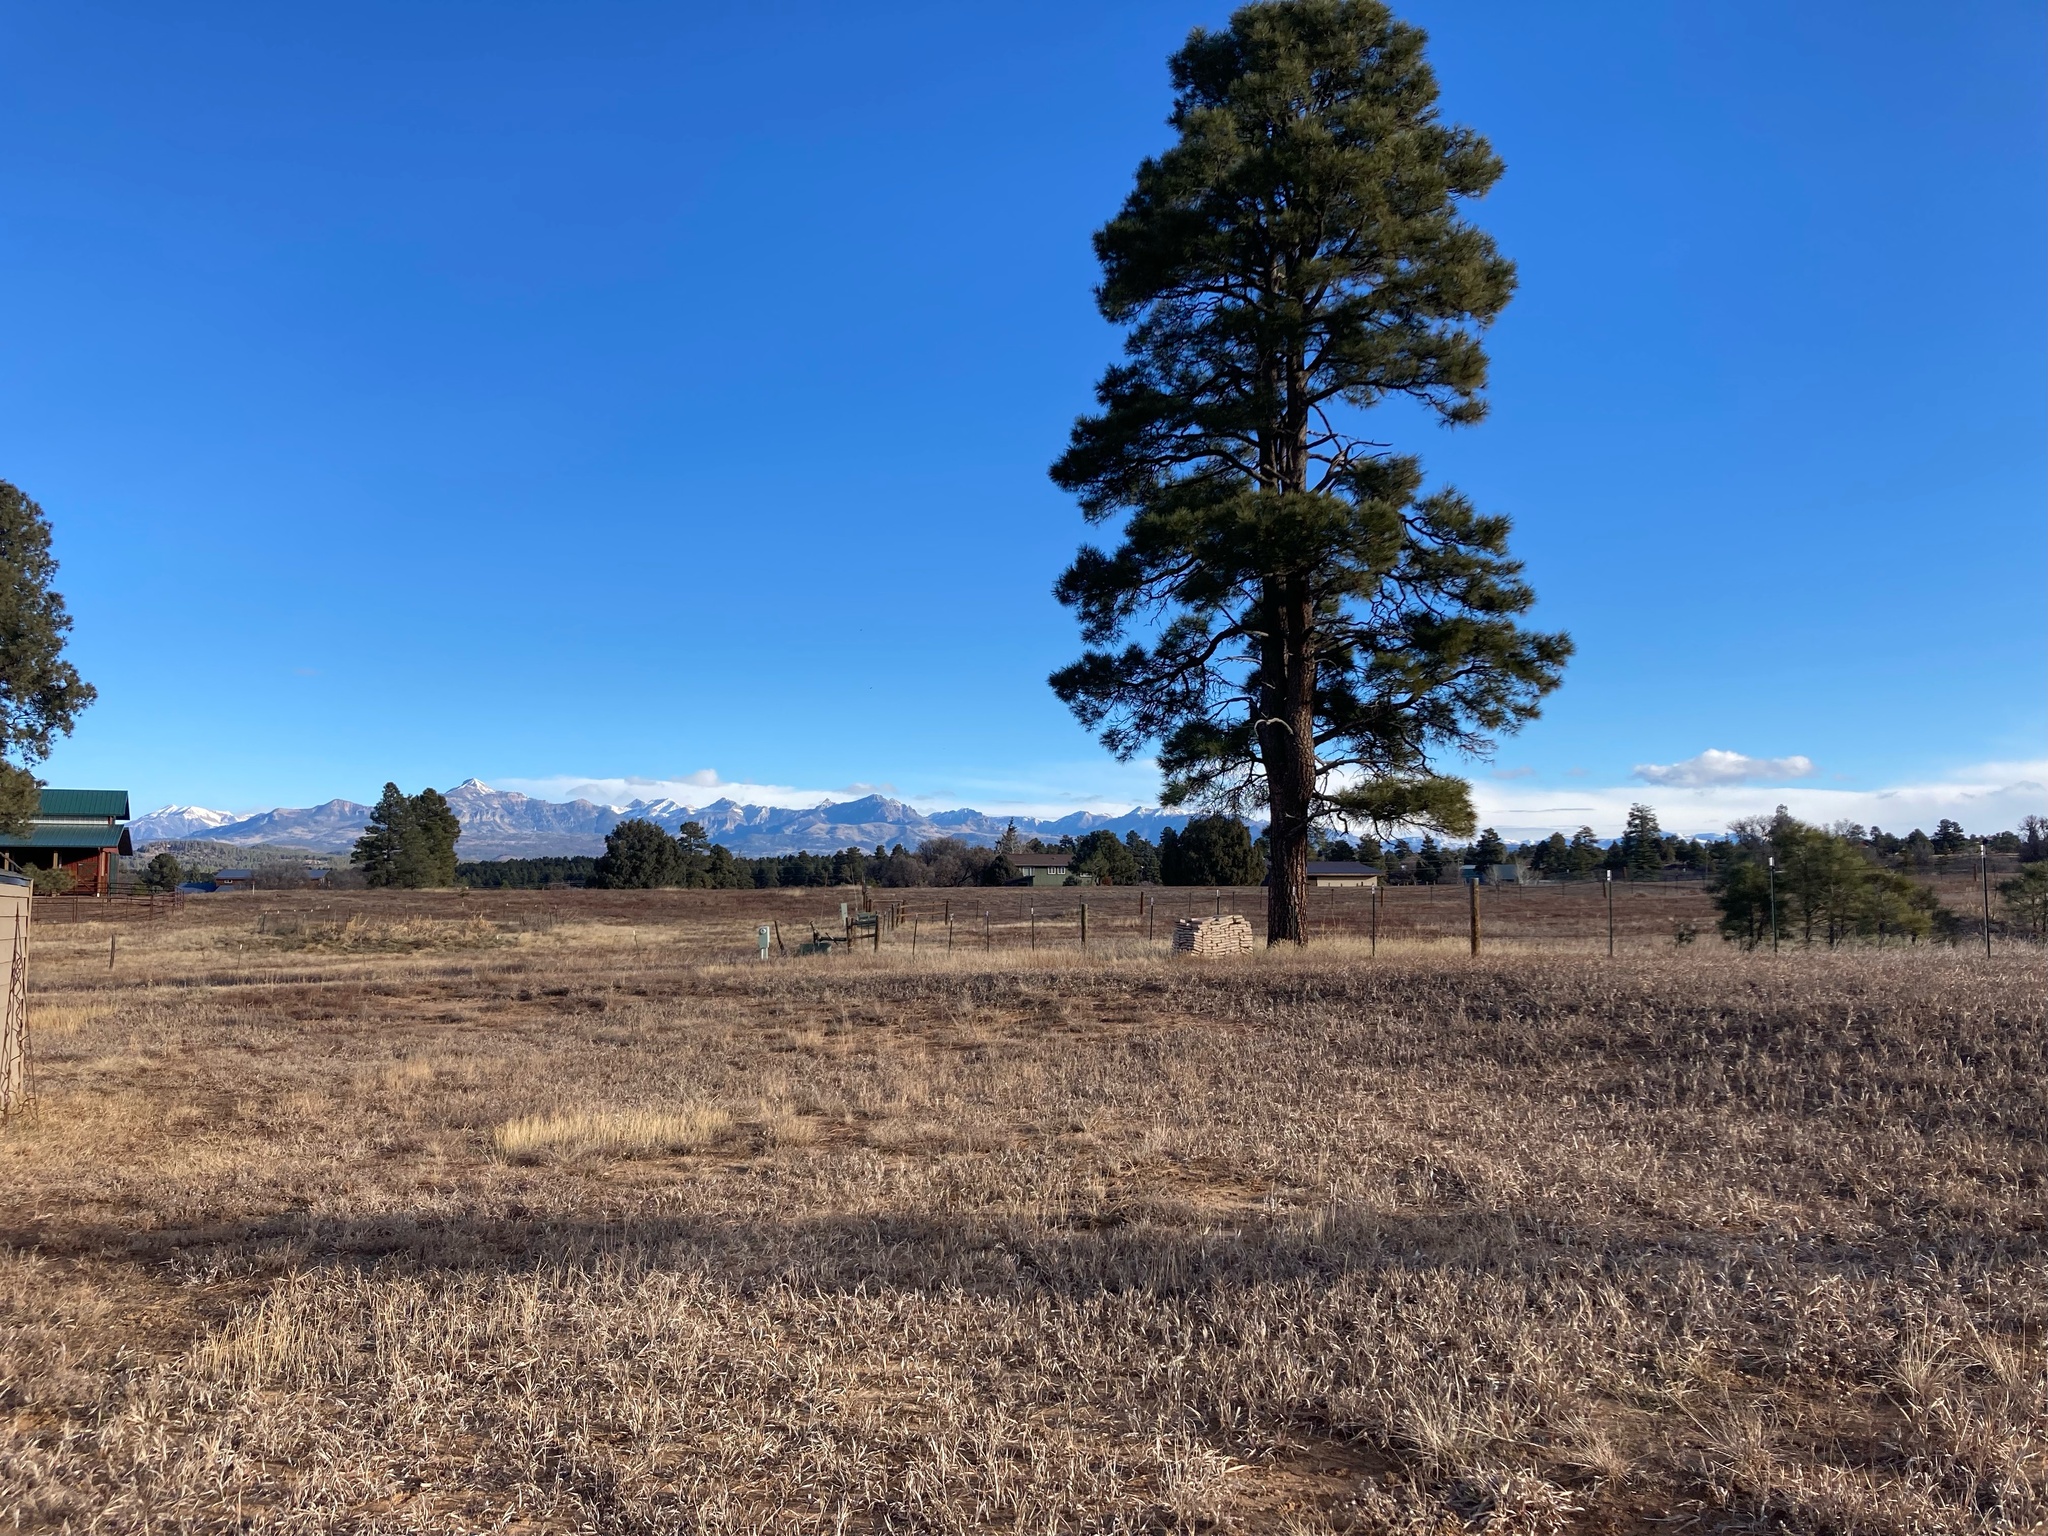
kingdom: Plantae
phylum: Tracheophyta
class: Pinopsida
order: Pinales
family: Pinaceae
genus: Pinus
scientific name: Pinus ponderosa
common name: Western yellow-pine
